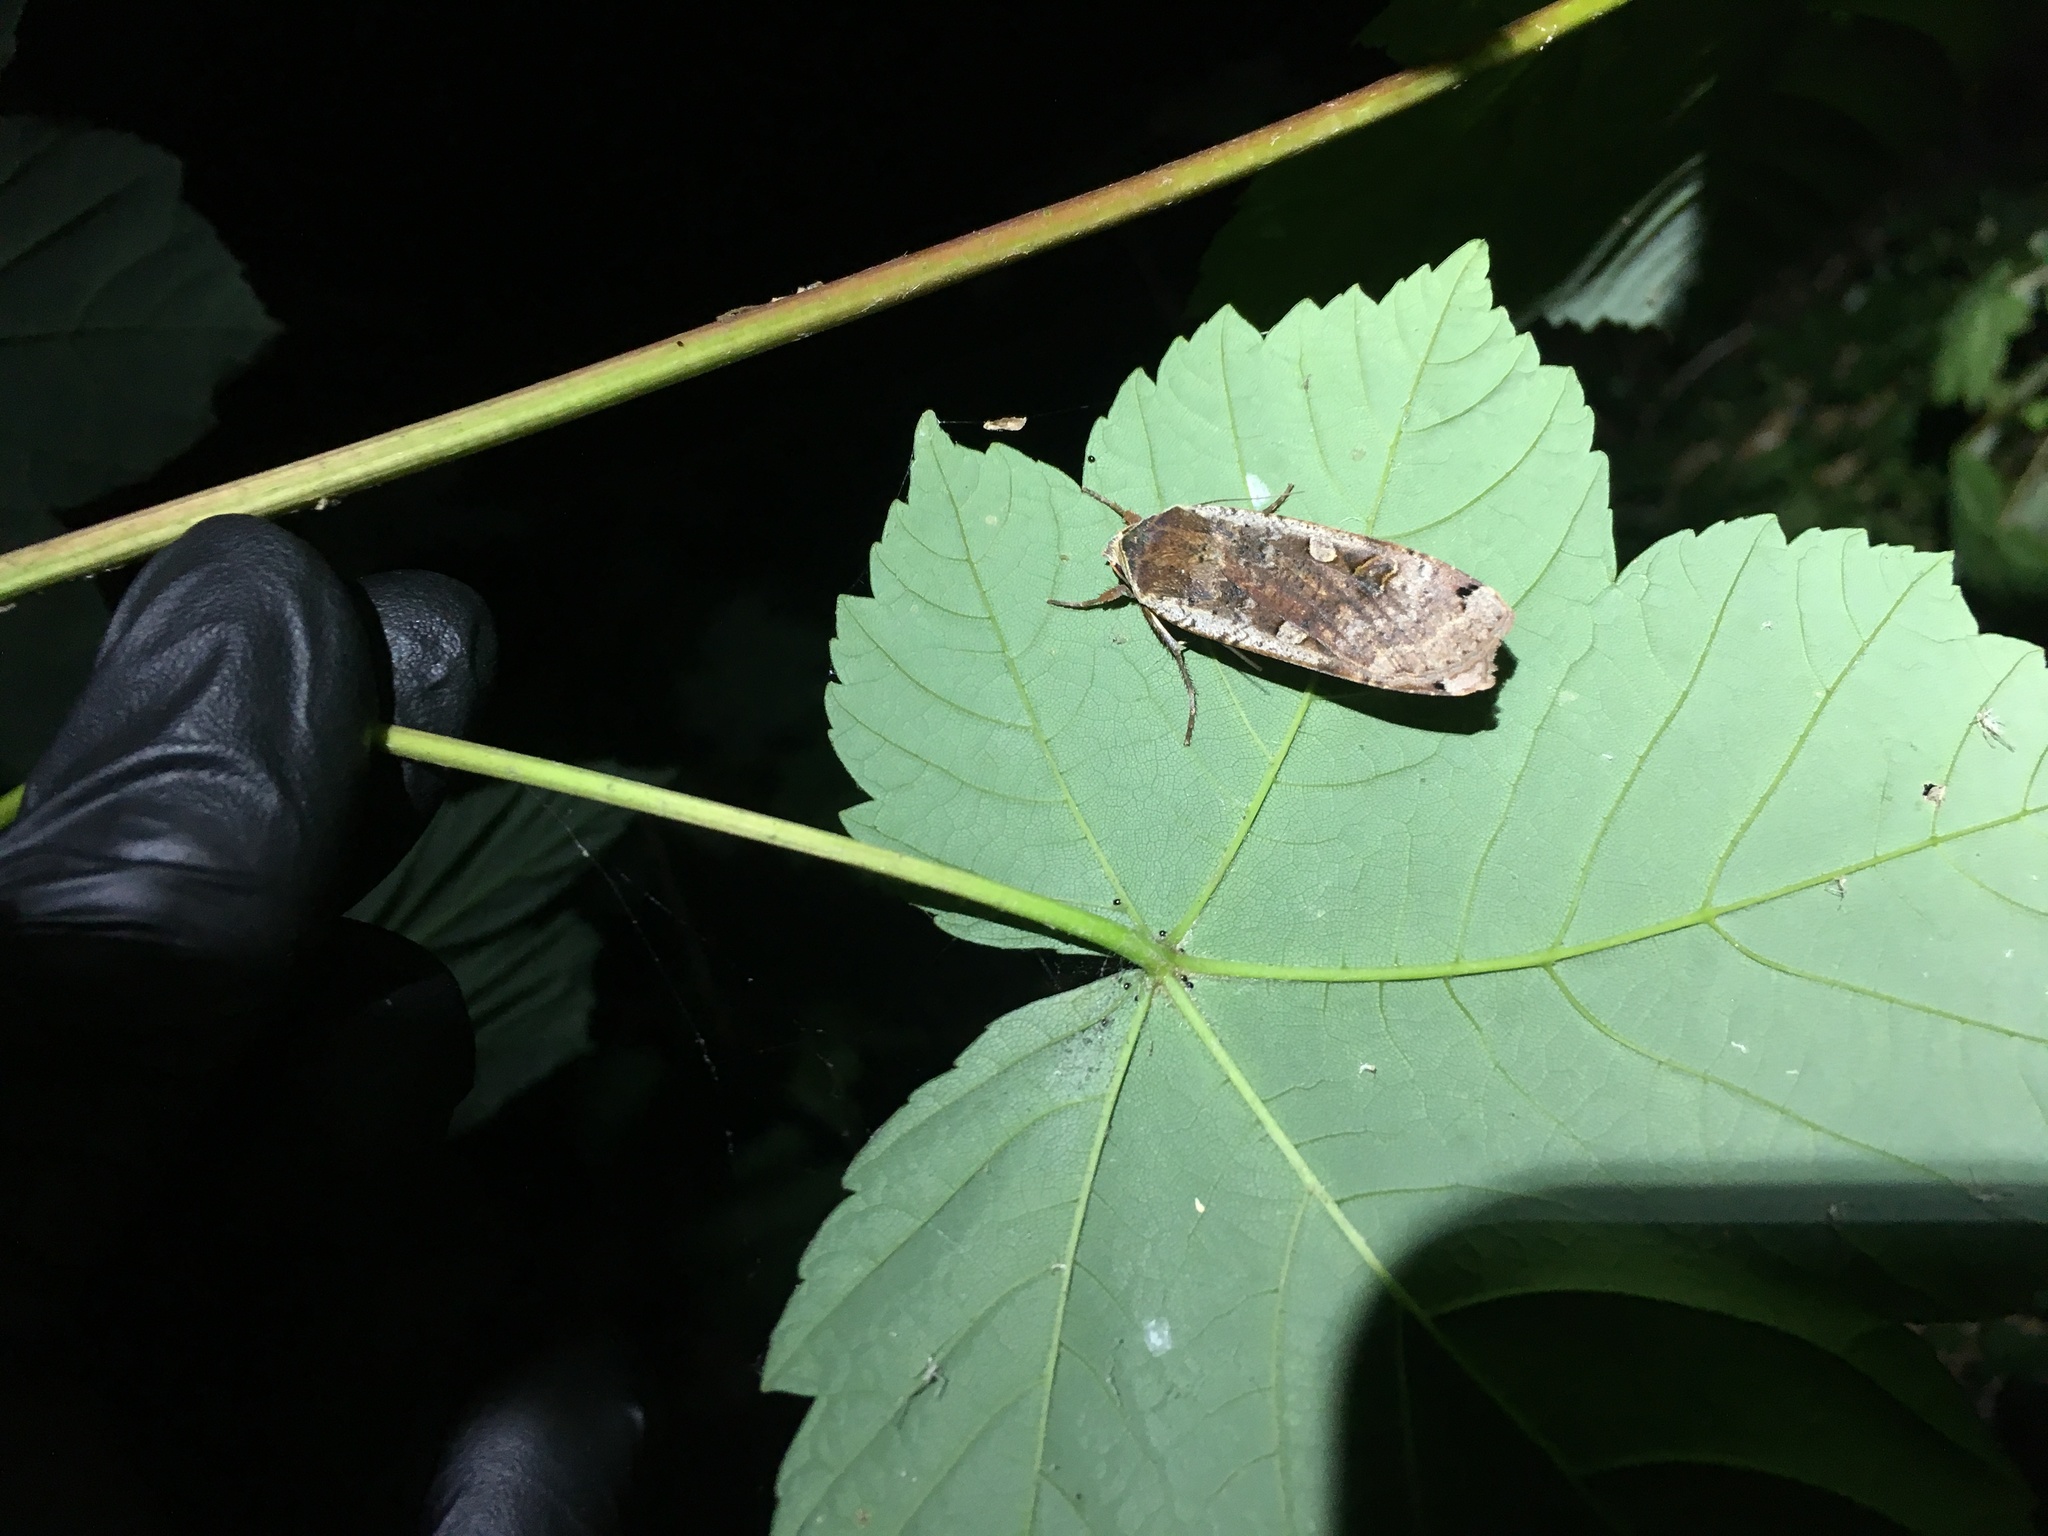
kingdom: Animalia
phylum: Arthropoda
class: Insecta
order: Lepidoptera
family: Noctuidae
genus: Noctua
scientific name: Noctua pronuba
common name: Large yellow underwing
